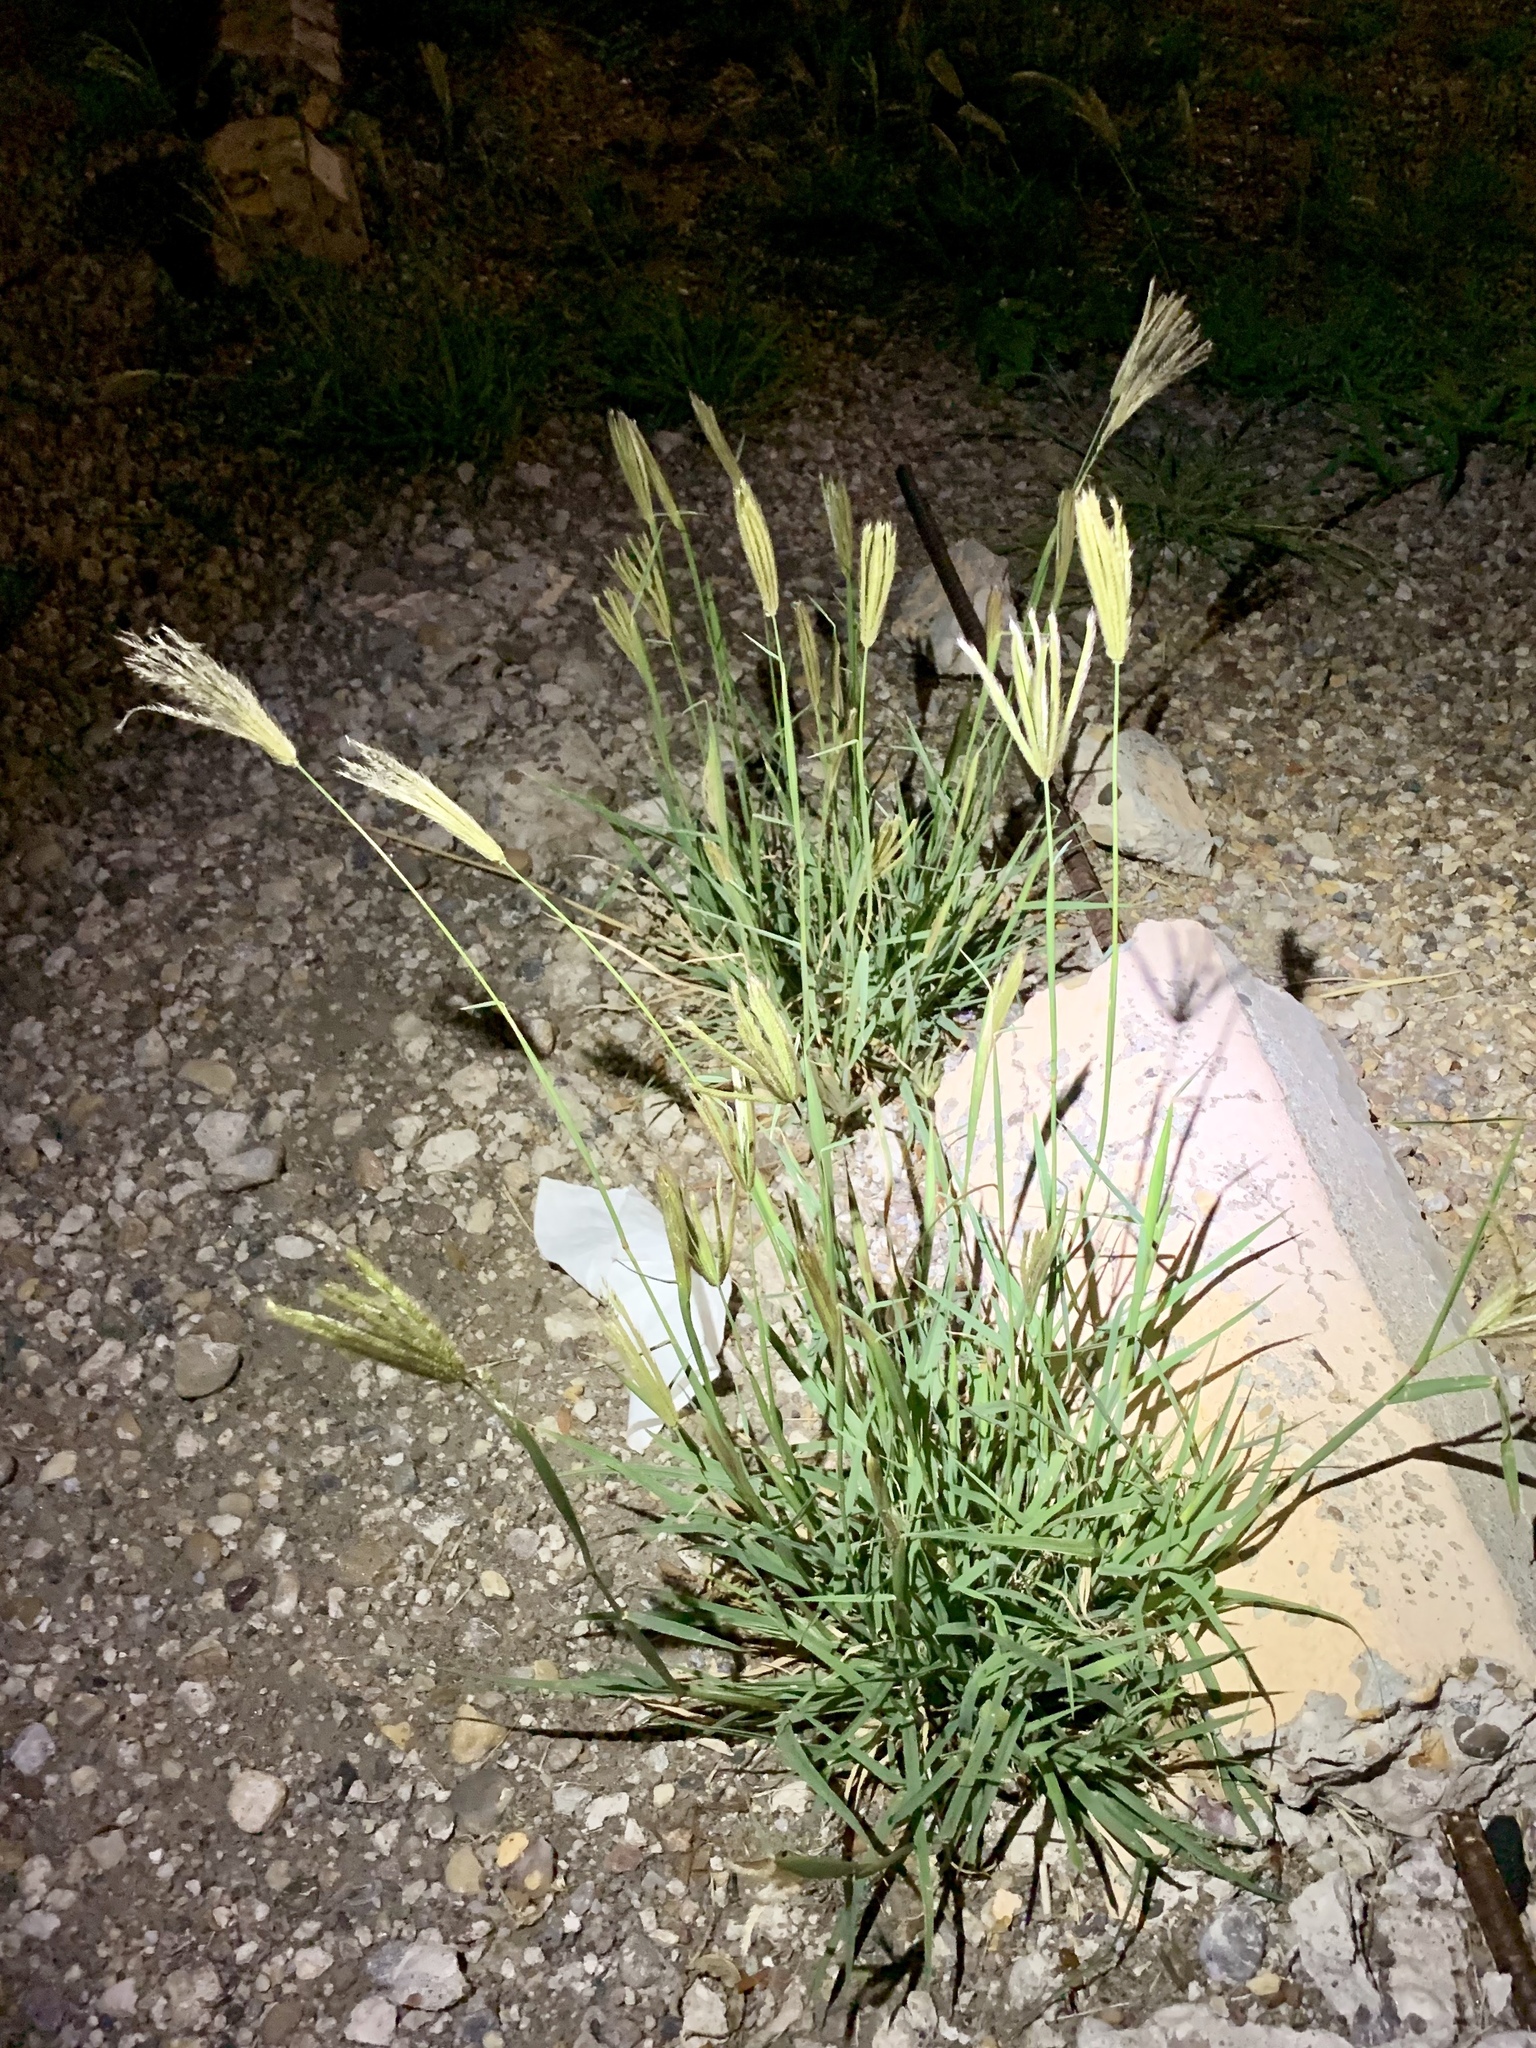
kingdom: Plantae
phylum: Tracheophyta
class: Liliopsida
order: Poales
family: Poaceae
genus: Chloris
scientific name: Chloris virgata
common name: Feathery rhodes-grass
